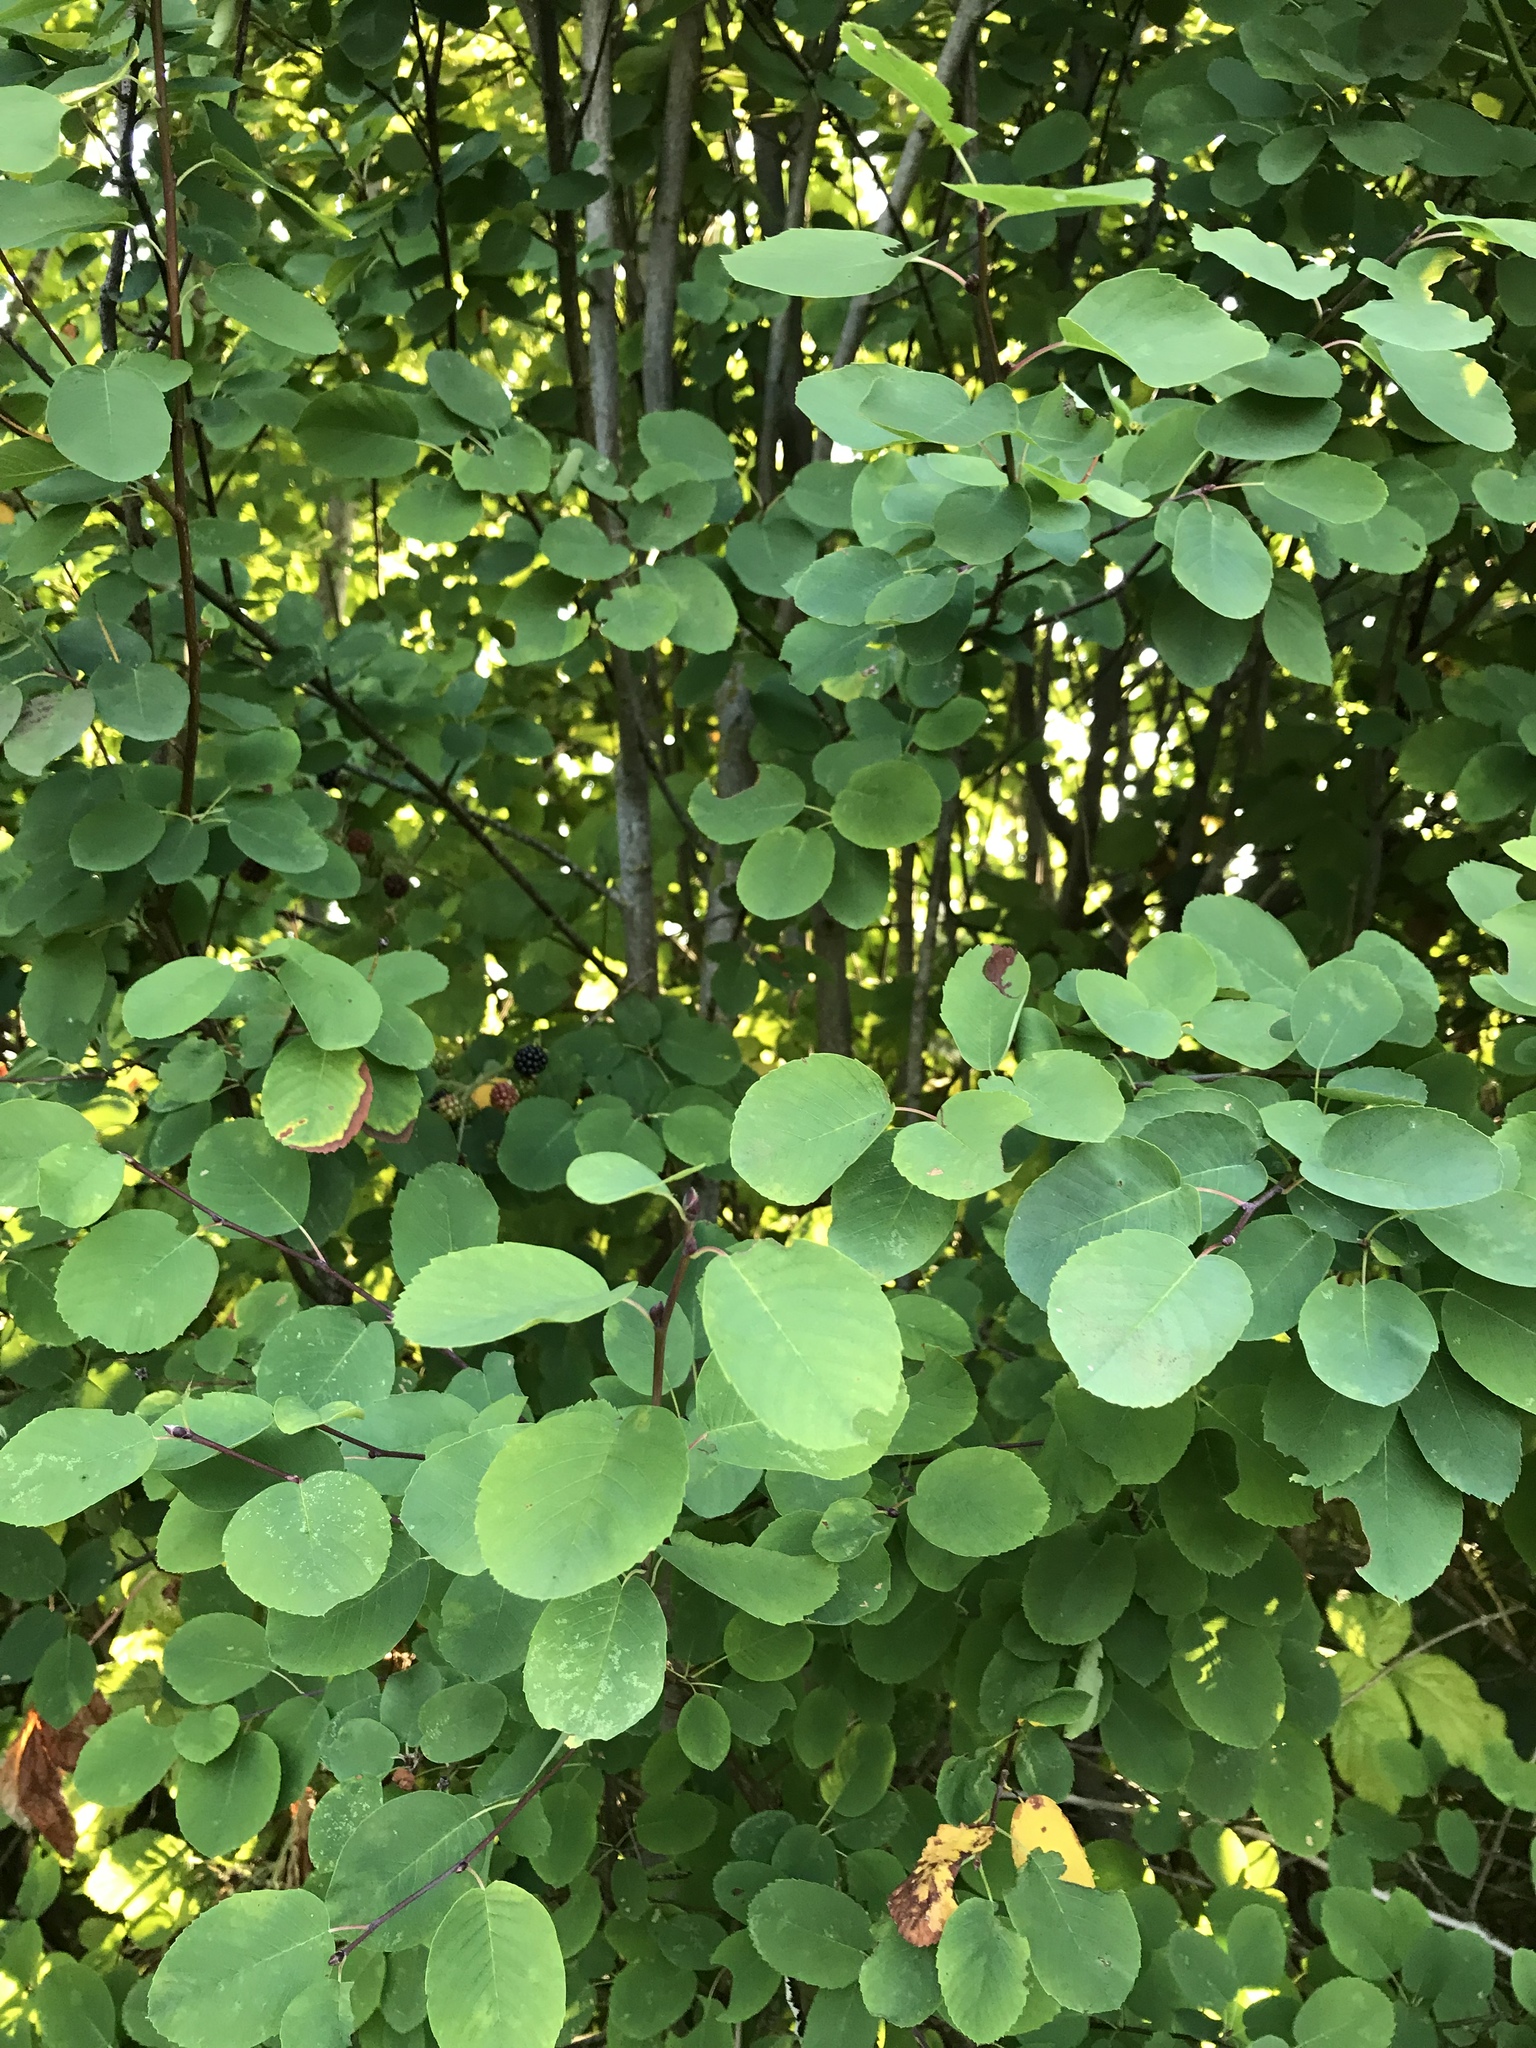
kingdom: Plantae
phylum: Tracheophyta
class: Magnoliopsida
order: Rosales
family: Rosaceae
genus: Amelanchier
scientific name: Amelanchier alnifolia
